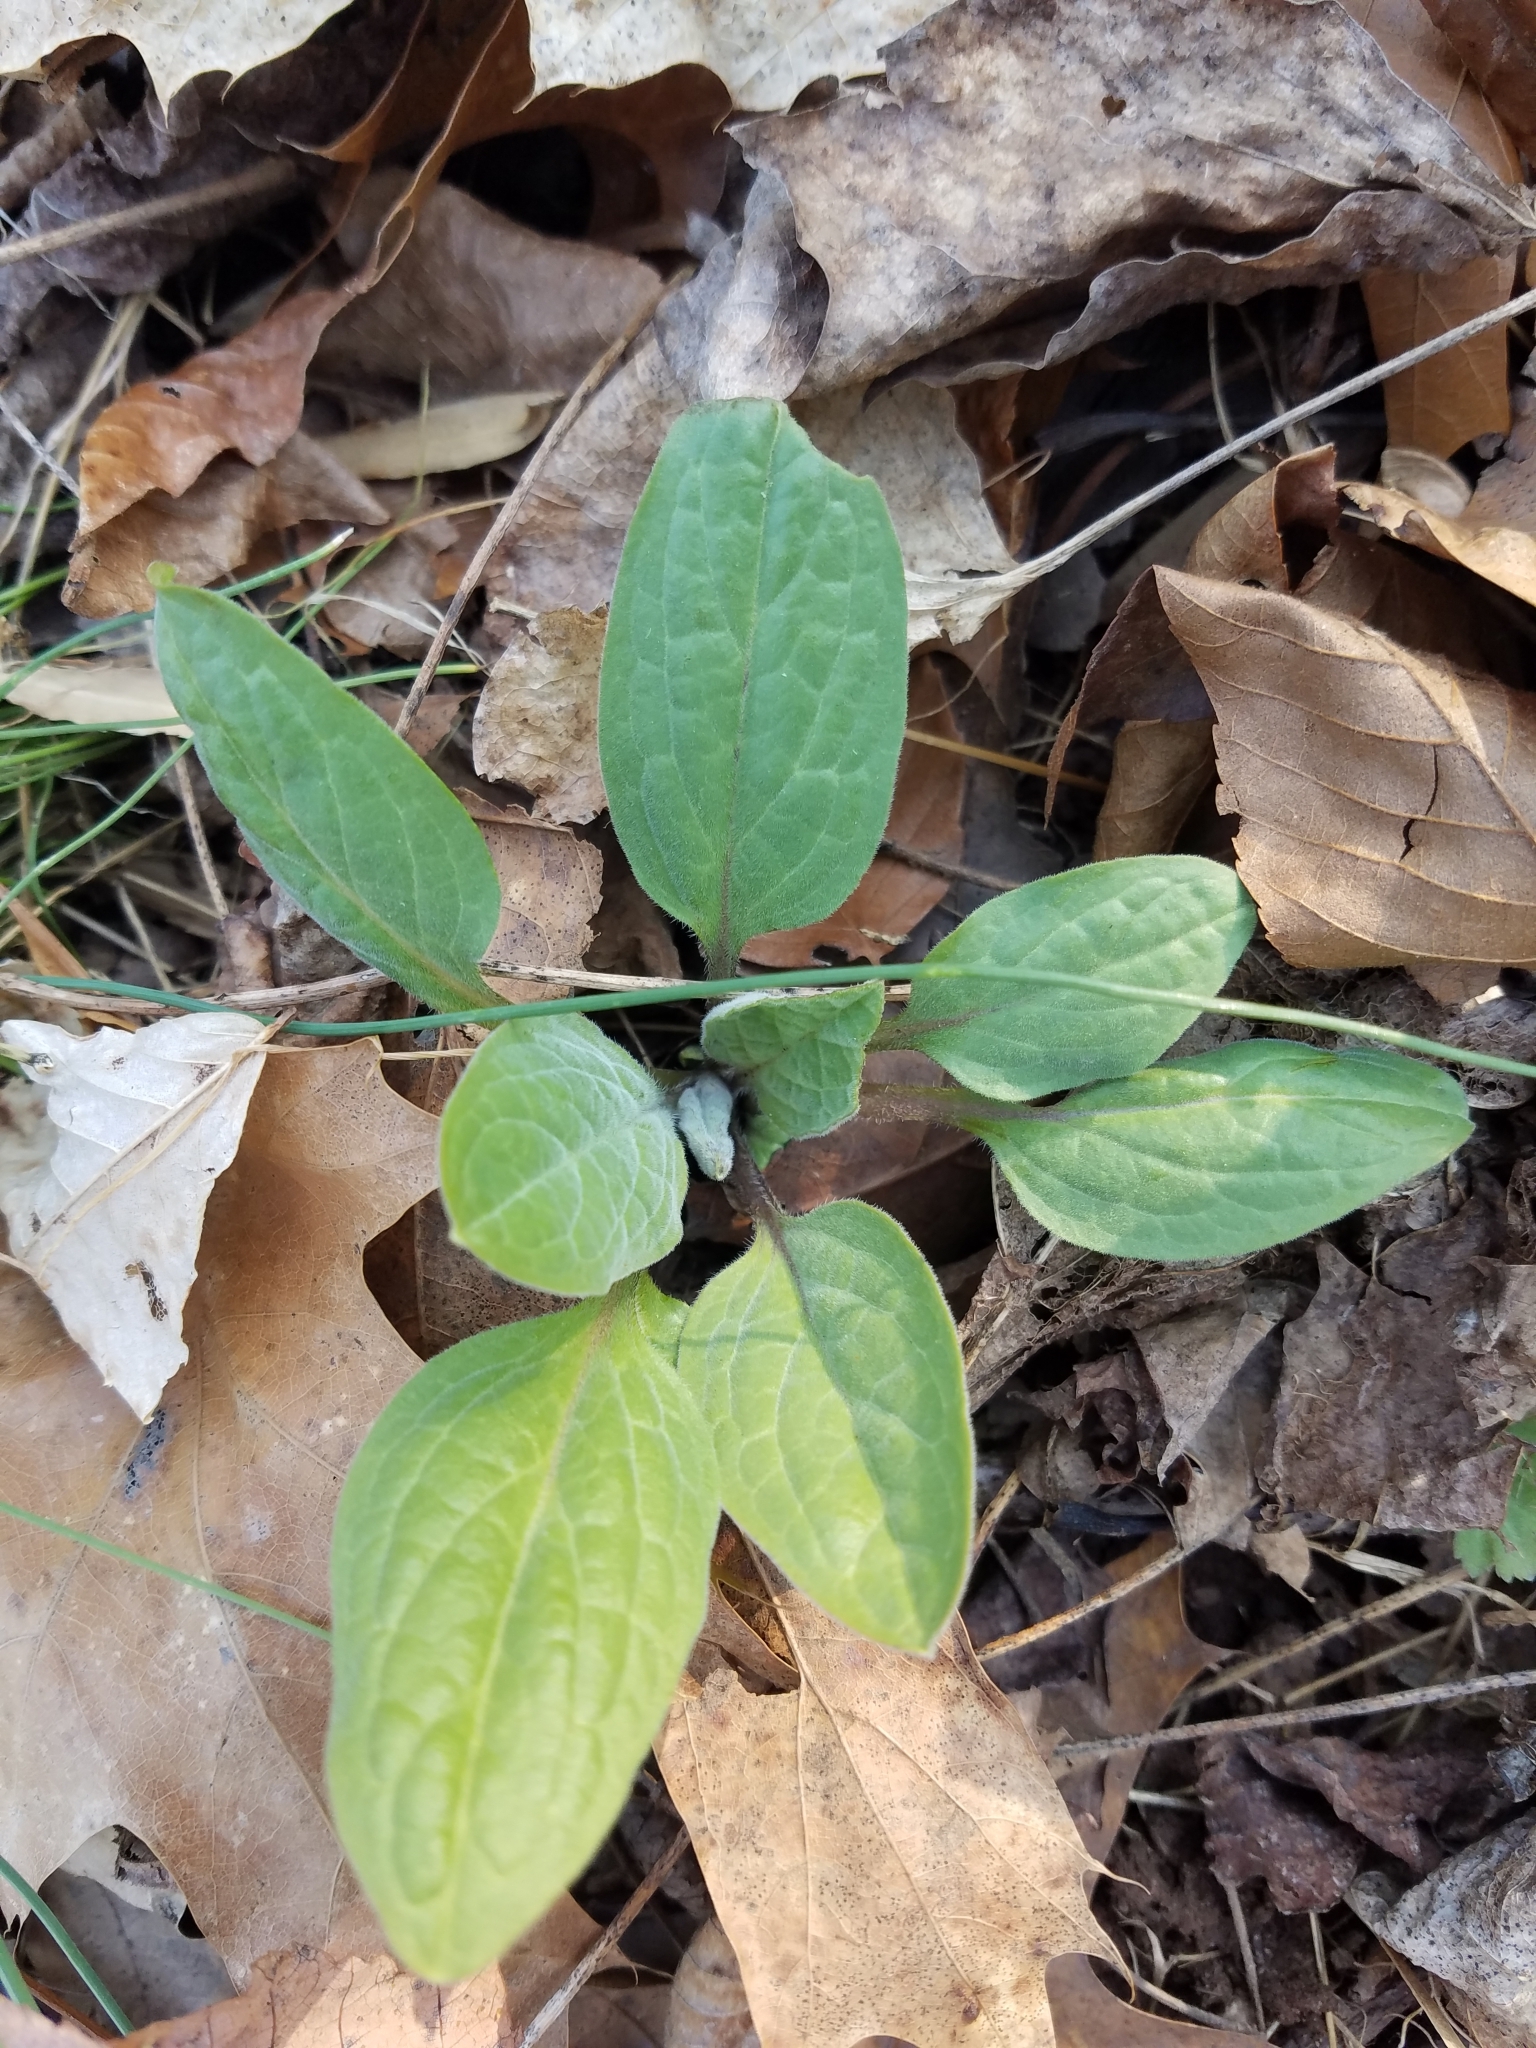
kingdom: Plantae
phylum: Tracheophyta
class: Magnoliopsida
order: Boraginales
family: Boraginaceae
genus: Hackelia
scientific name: Hackelia virginiana
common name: Beggar's-lice
